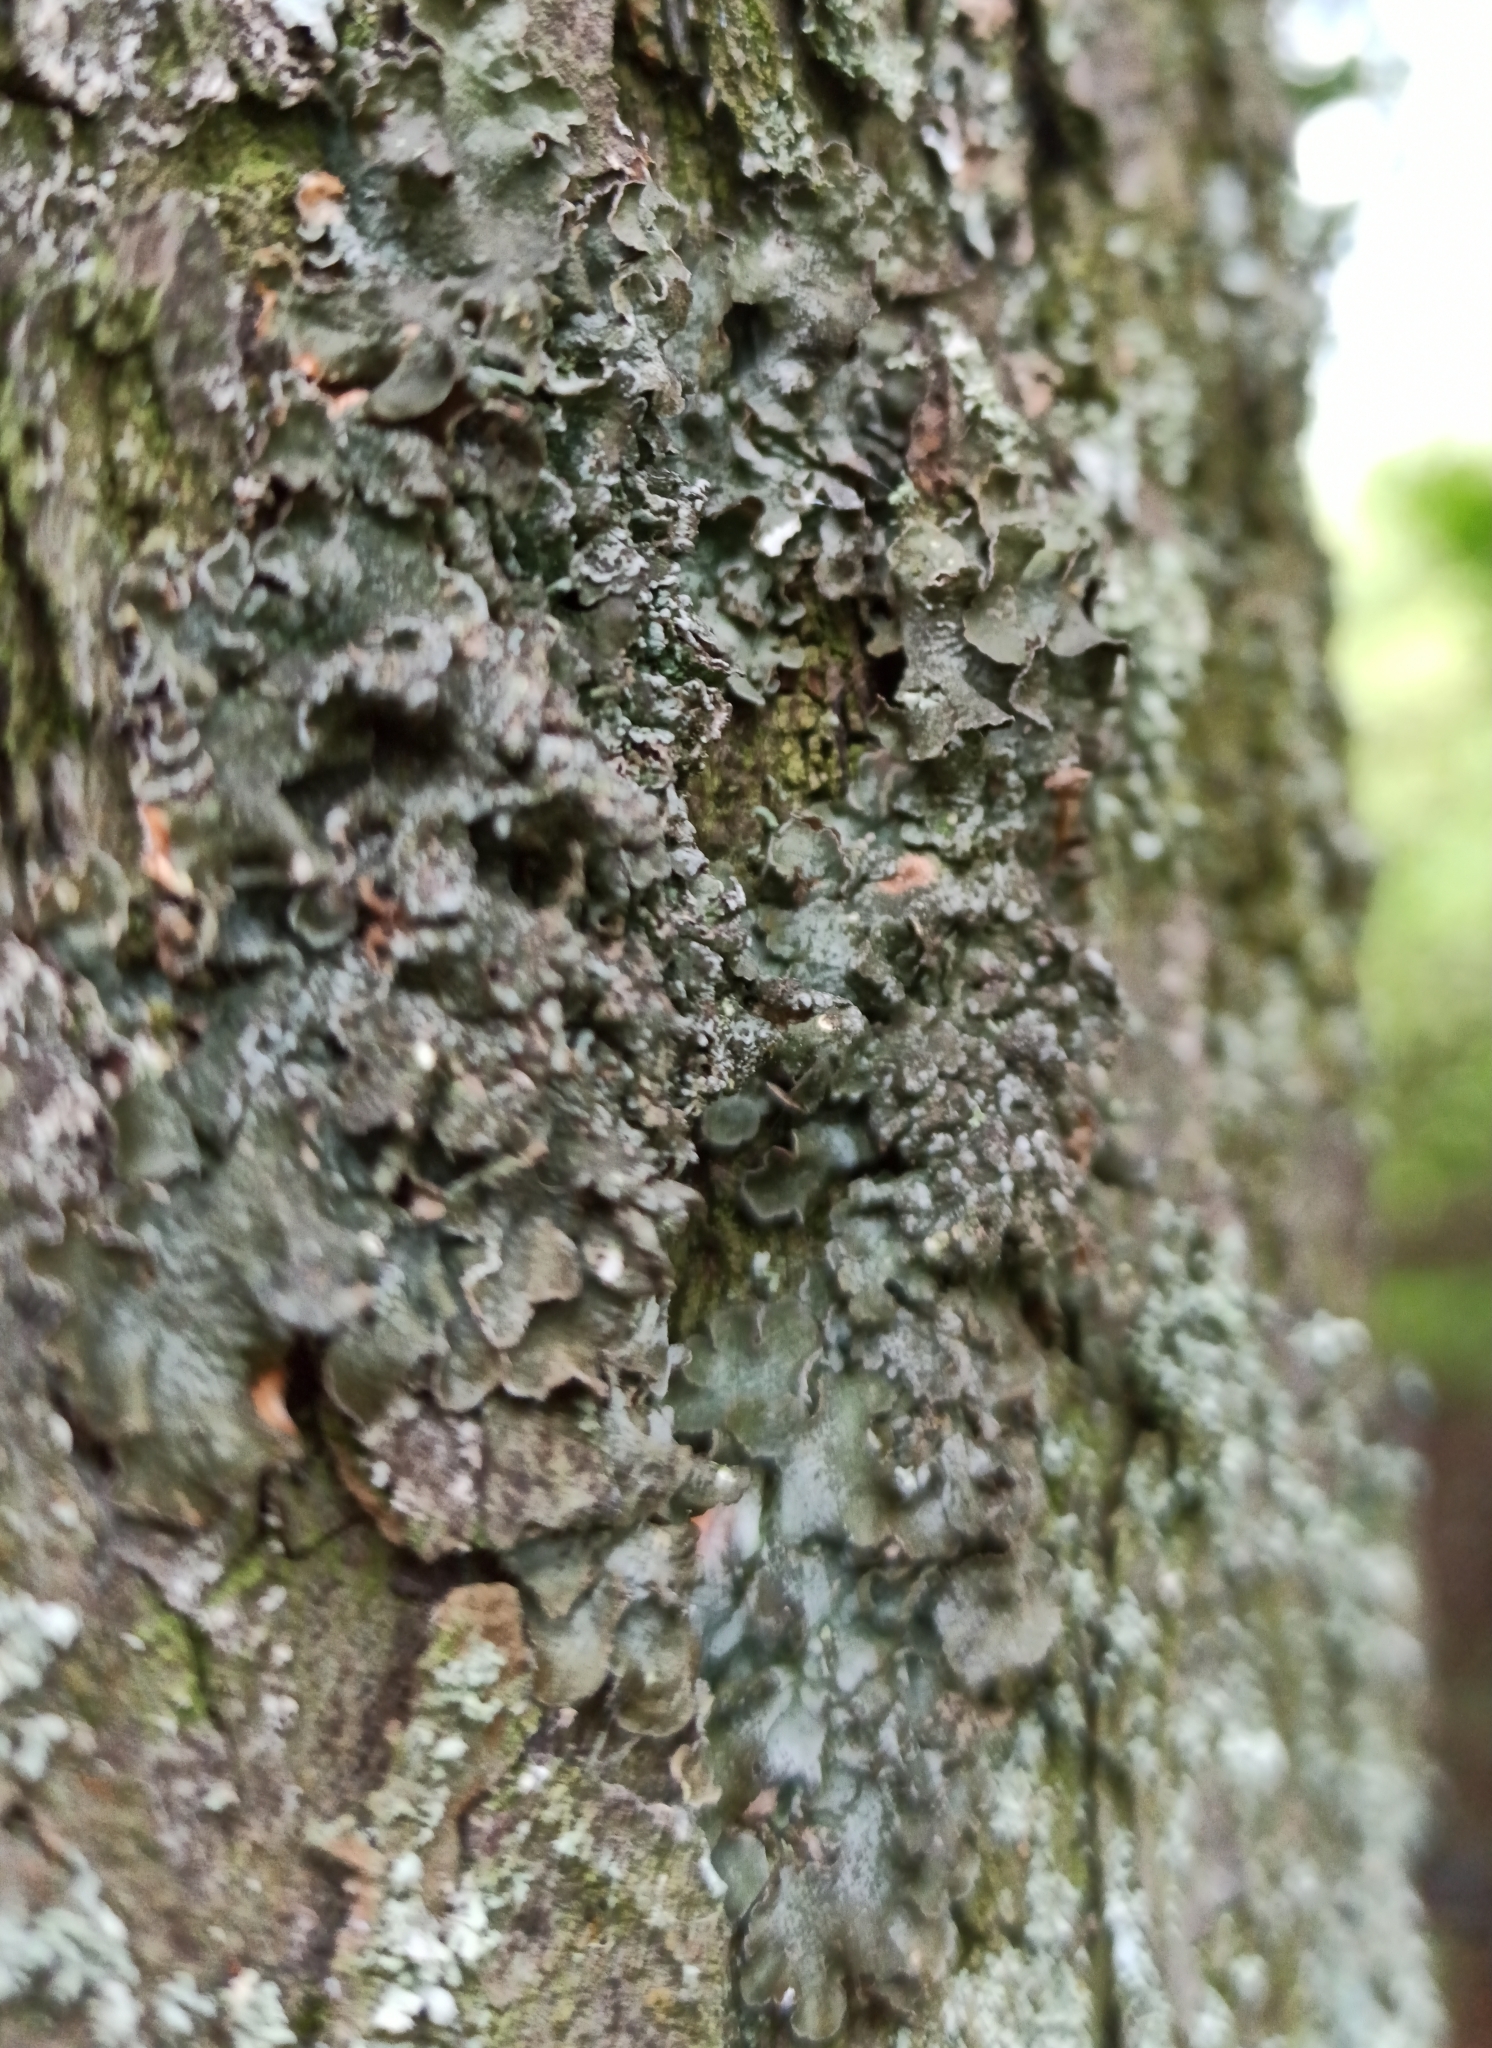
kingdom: Fungi
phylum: Ascomycota
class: Lecanoromycetes
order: Lecanorales
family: Parmeliaceae
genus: Pleurosticta
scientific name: Pleurosticta acetabulum
